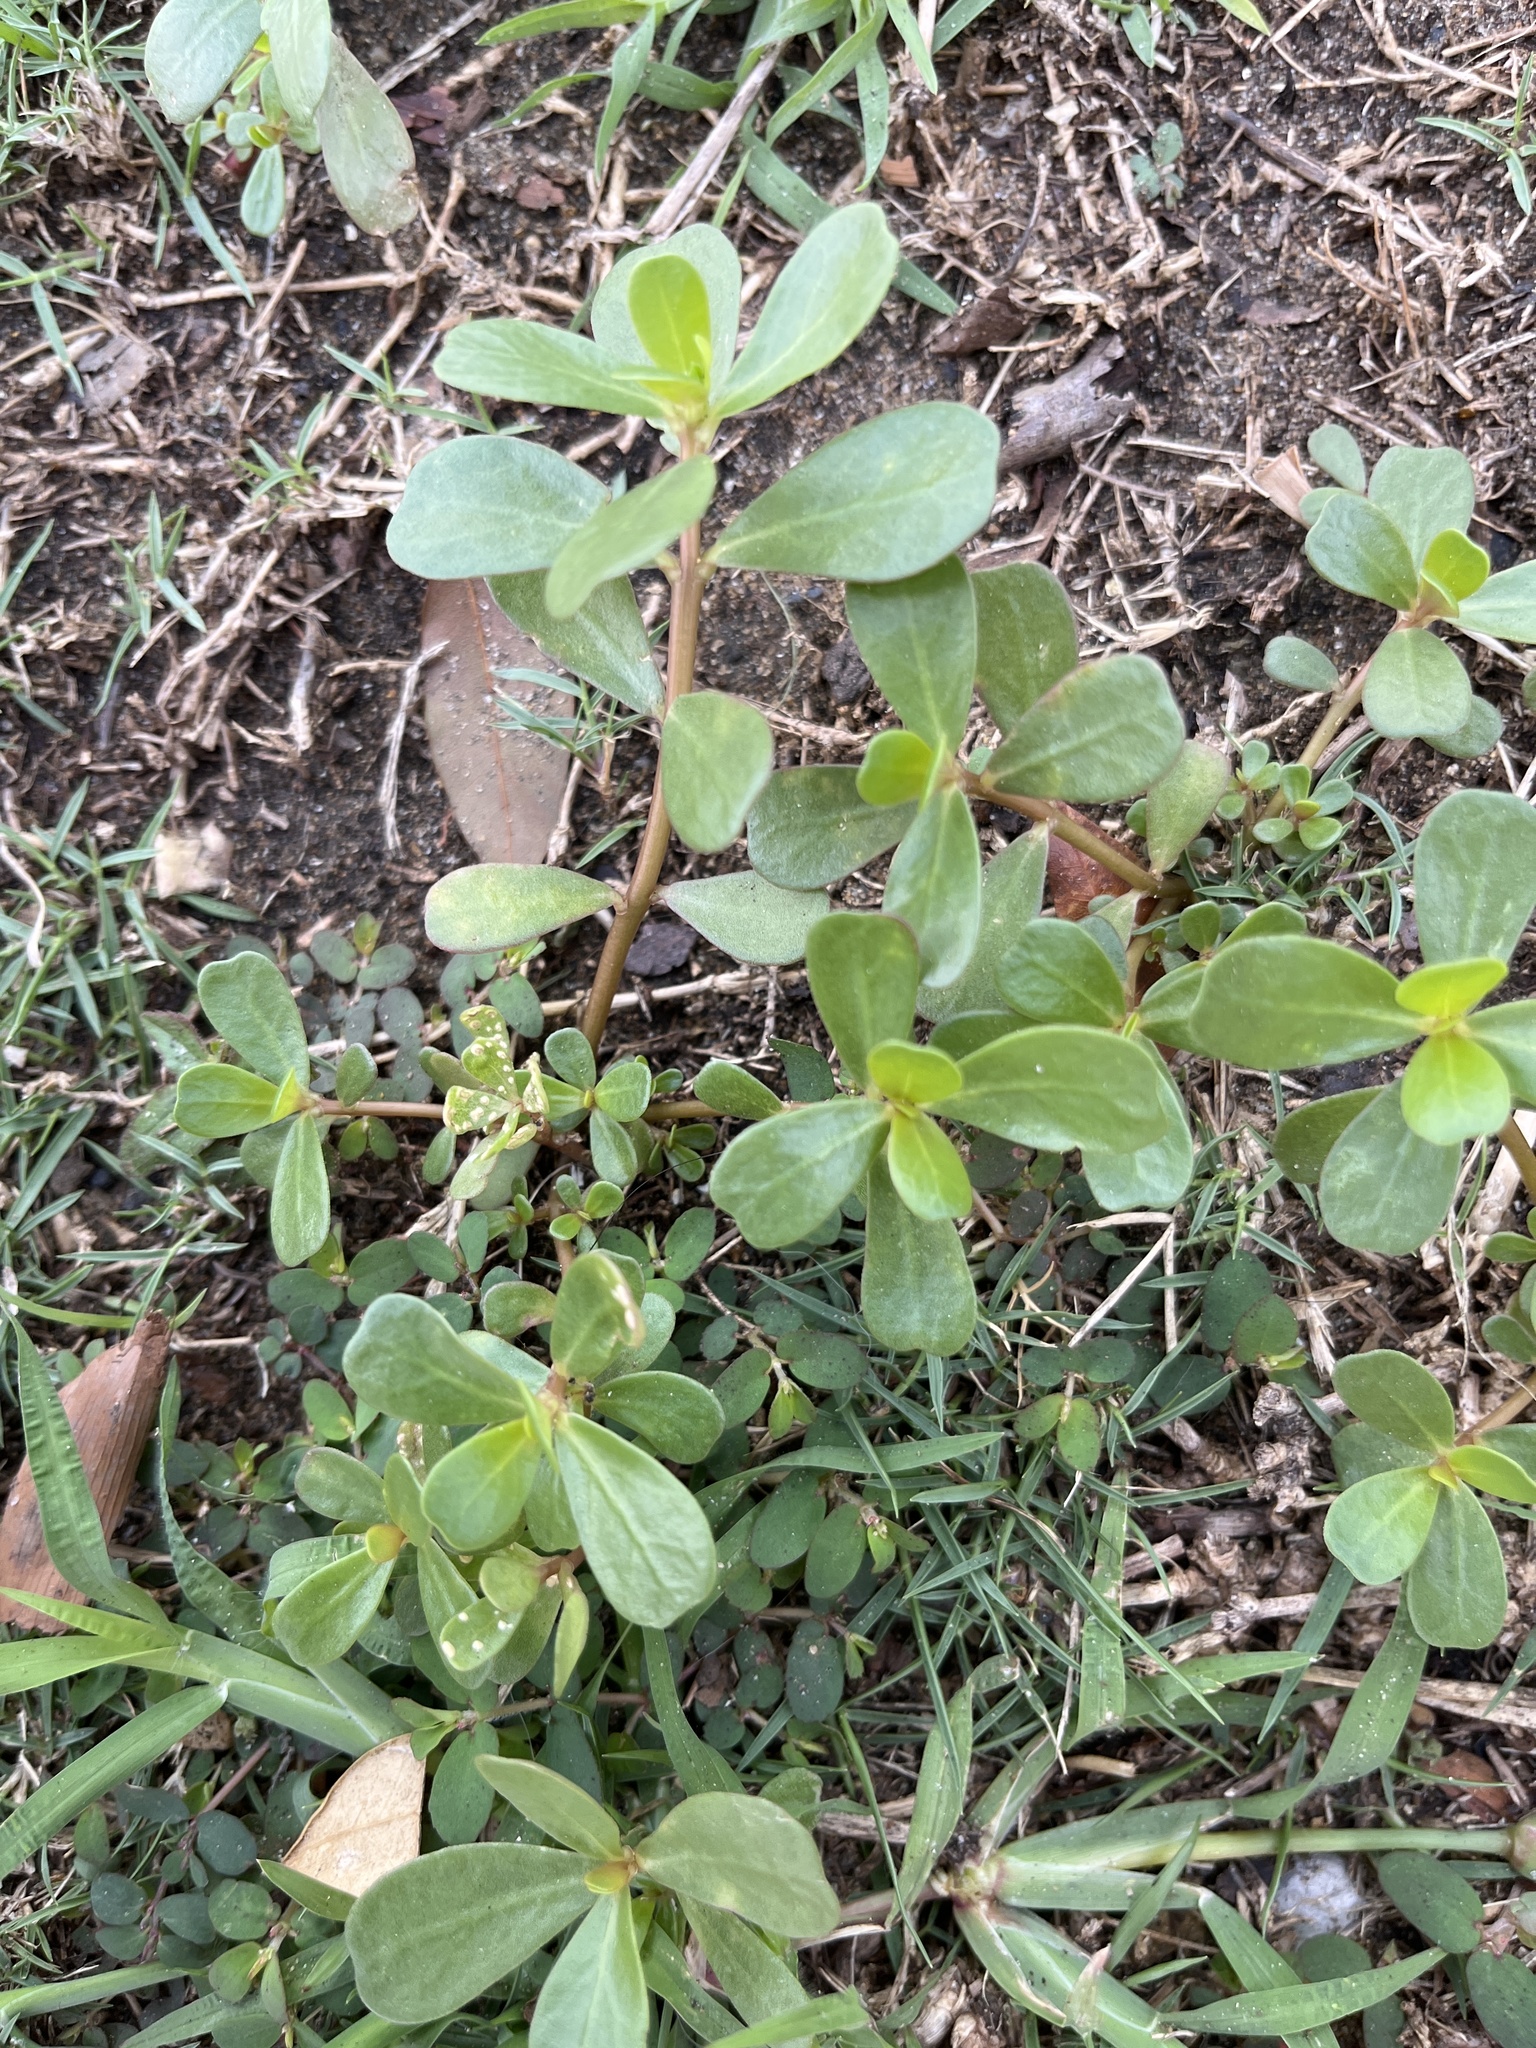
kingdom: Plantae
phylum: Tracheophyta
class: Magnoliopsida
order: Caryophyllales
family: Portulacaceae
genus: Portulaca
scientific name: Portulaca oleracea
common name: Common purslane
